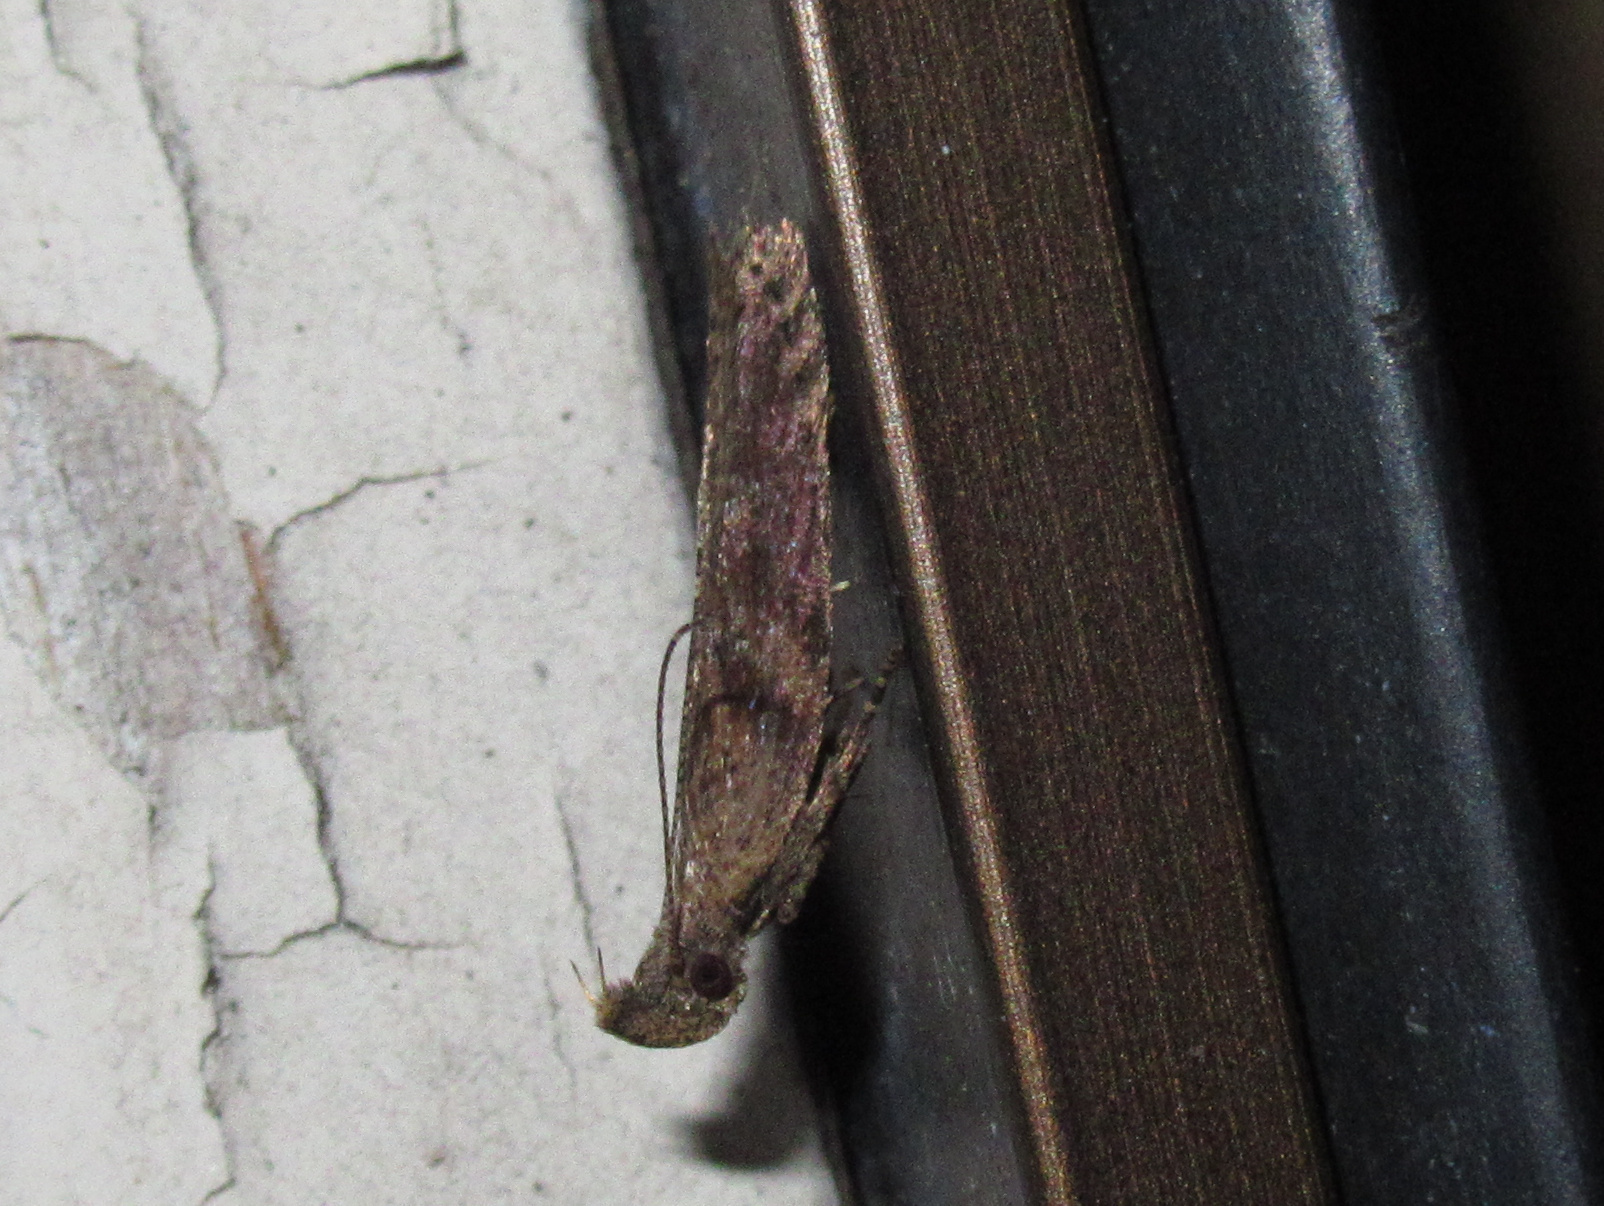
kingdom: Animalia
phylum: Arthropoda
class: Insecta
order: Lepidoptera
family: Depressariidae
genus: Eutorna
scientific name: Eutorna phaulocosma
